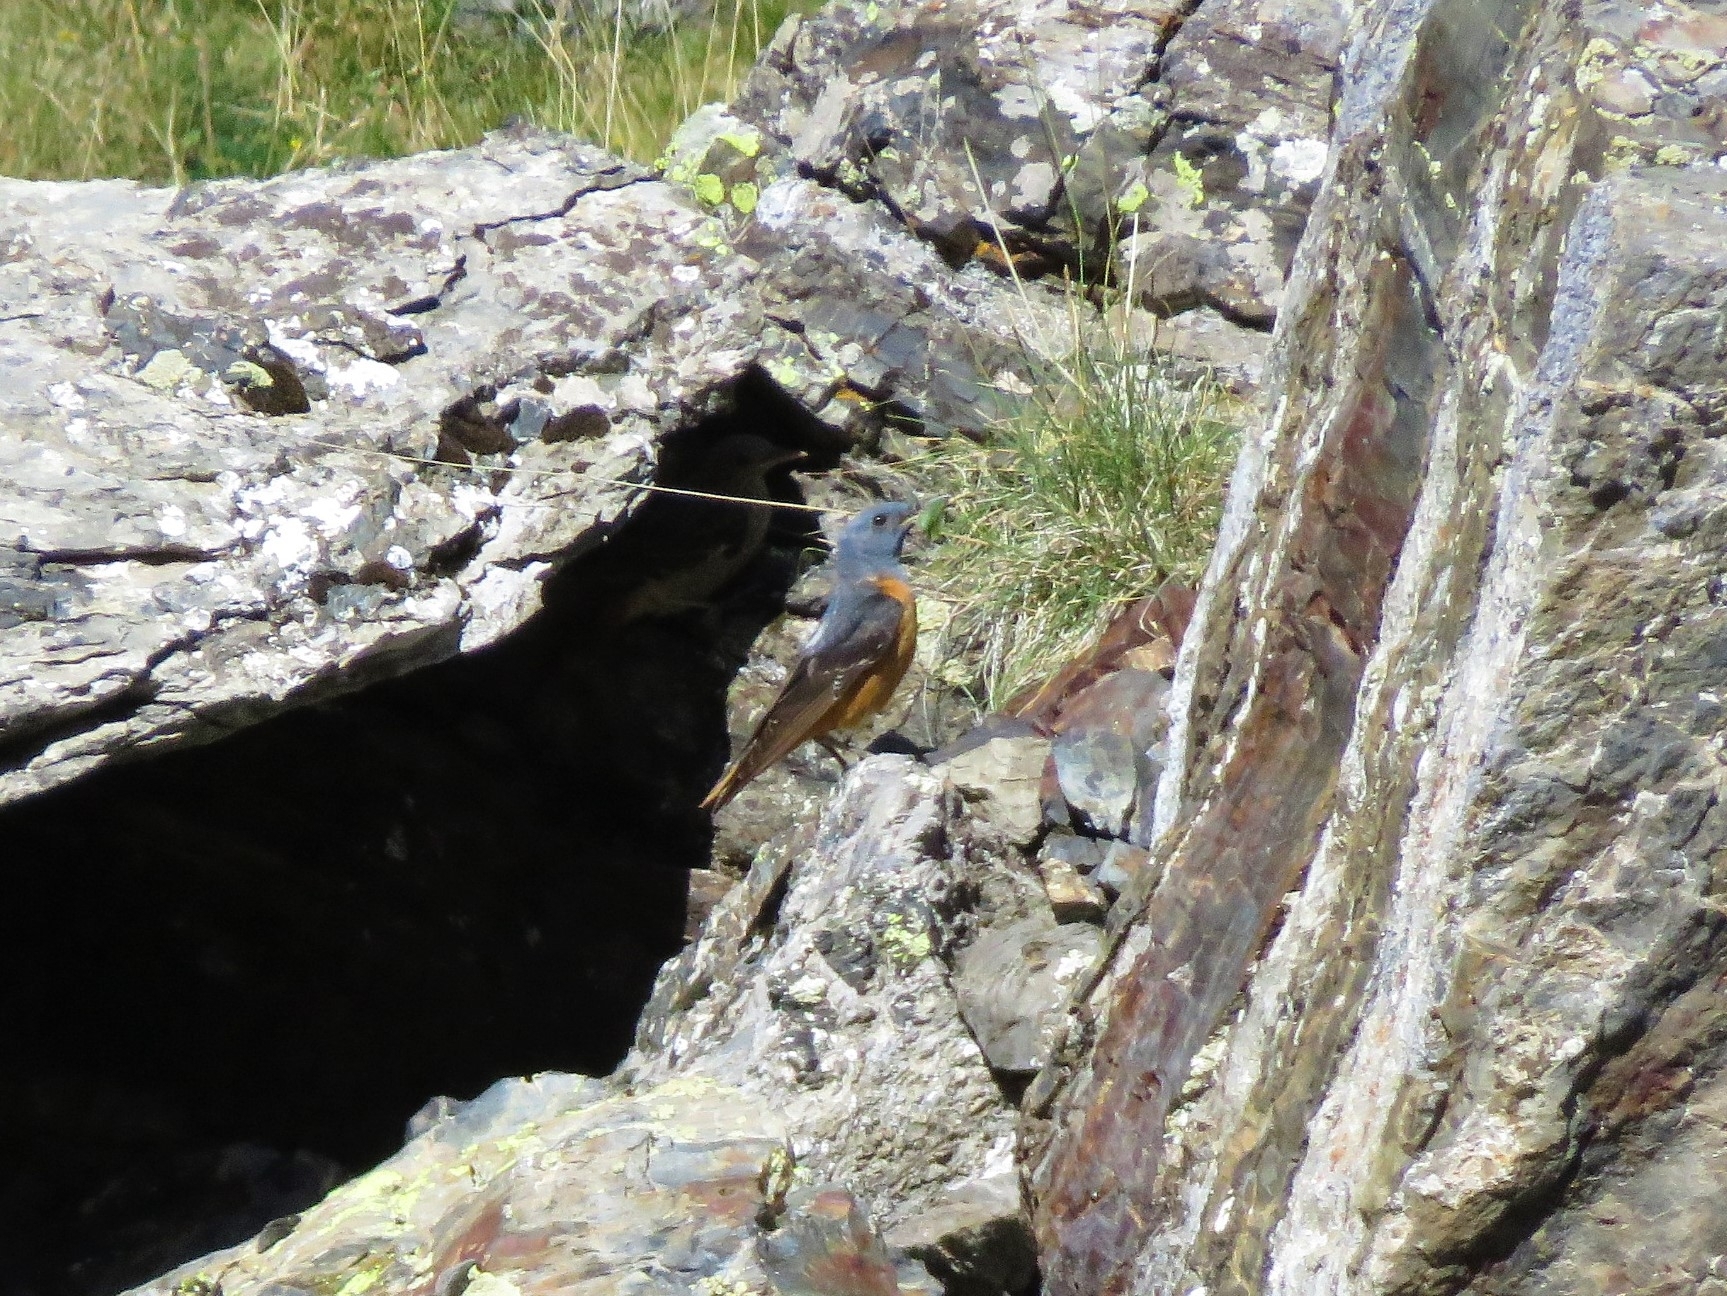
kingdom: Animalia
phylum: Chordata
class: Aves
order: Passeriformes
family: Muscicapidae
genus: Monticola
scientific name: Monticola saxatilis
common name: Rufous-tailed rock thrush
